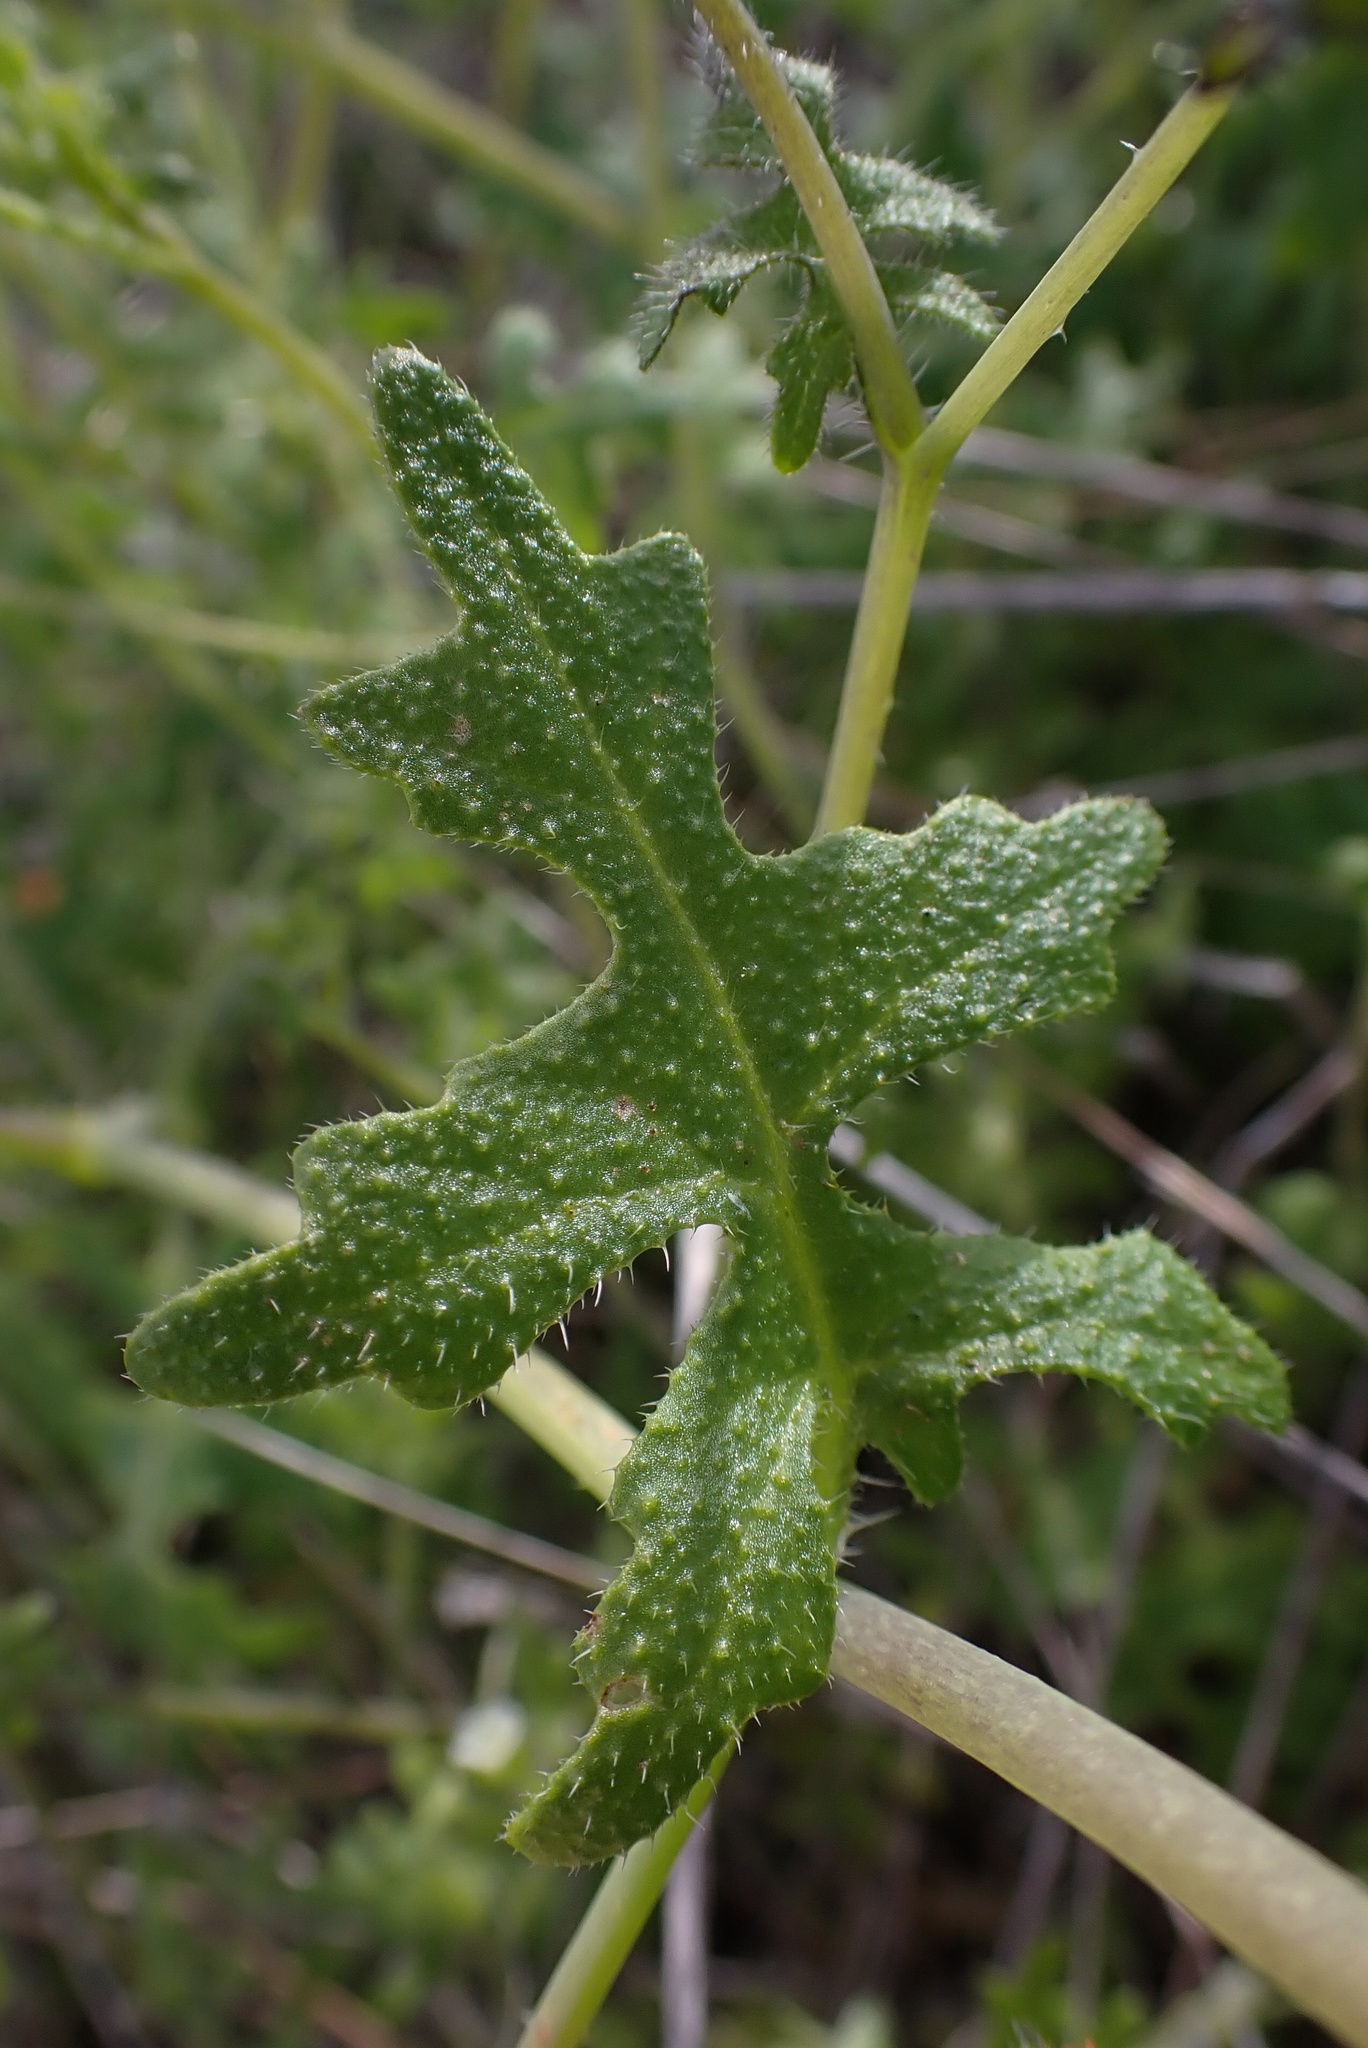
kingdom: Plantae
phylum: Tracheophyta
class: Magnoliopsida
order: Boraginales
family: Hydrophyllaceae
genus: Pholistoma
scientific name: Pholistoma racemosum
